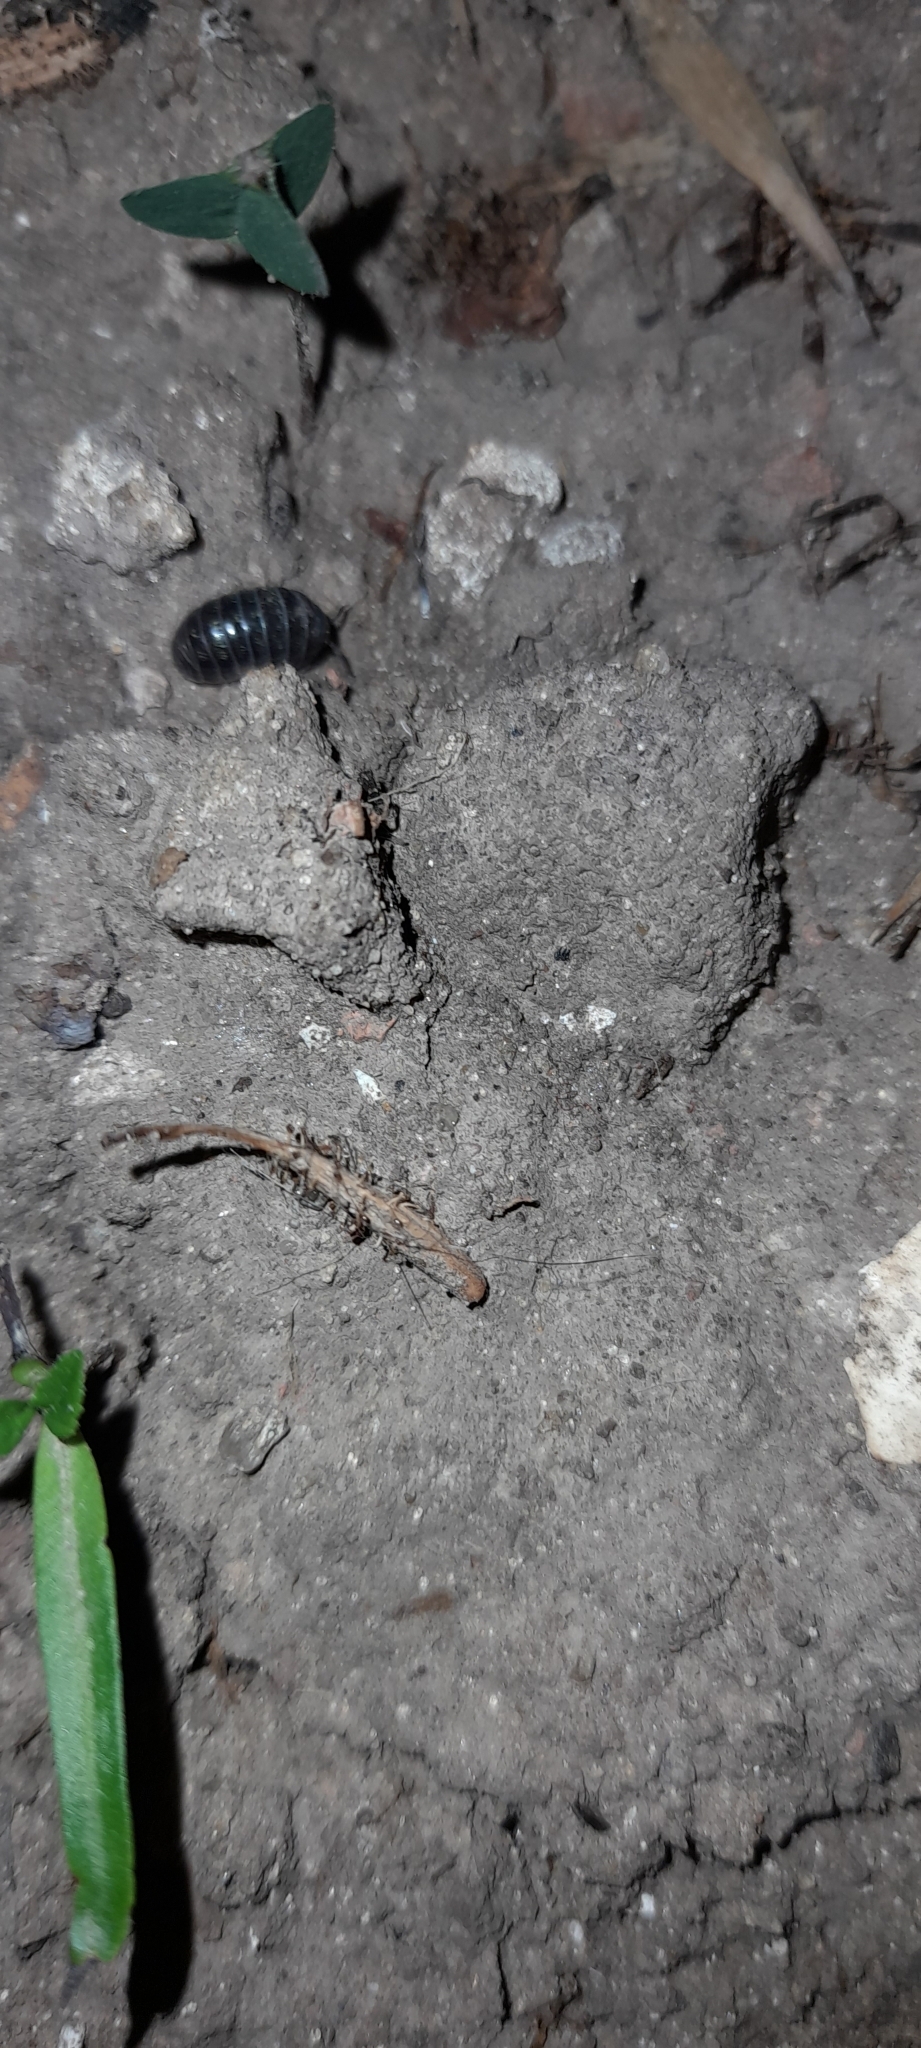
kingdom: Animalia
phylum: Arthropoda
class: Malacostraca
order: Isopoda
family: Armadillidiidae
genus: Armadillidium
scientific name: Armadillidium vulgare
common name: Common pill woodlouse
